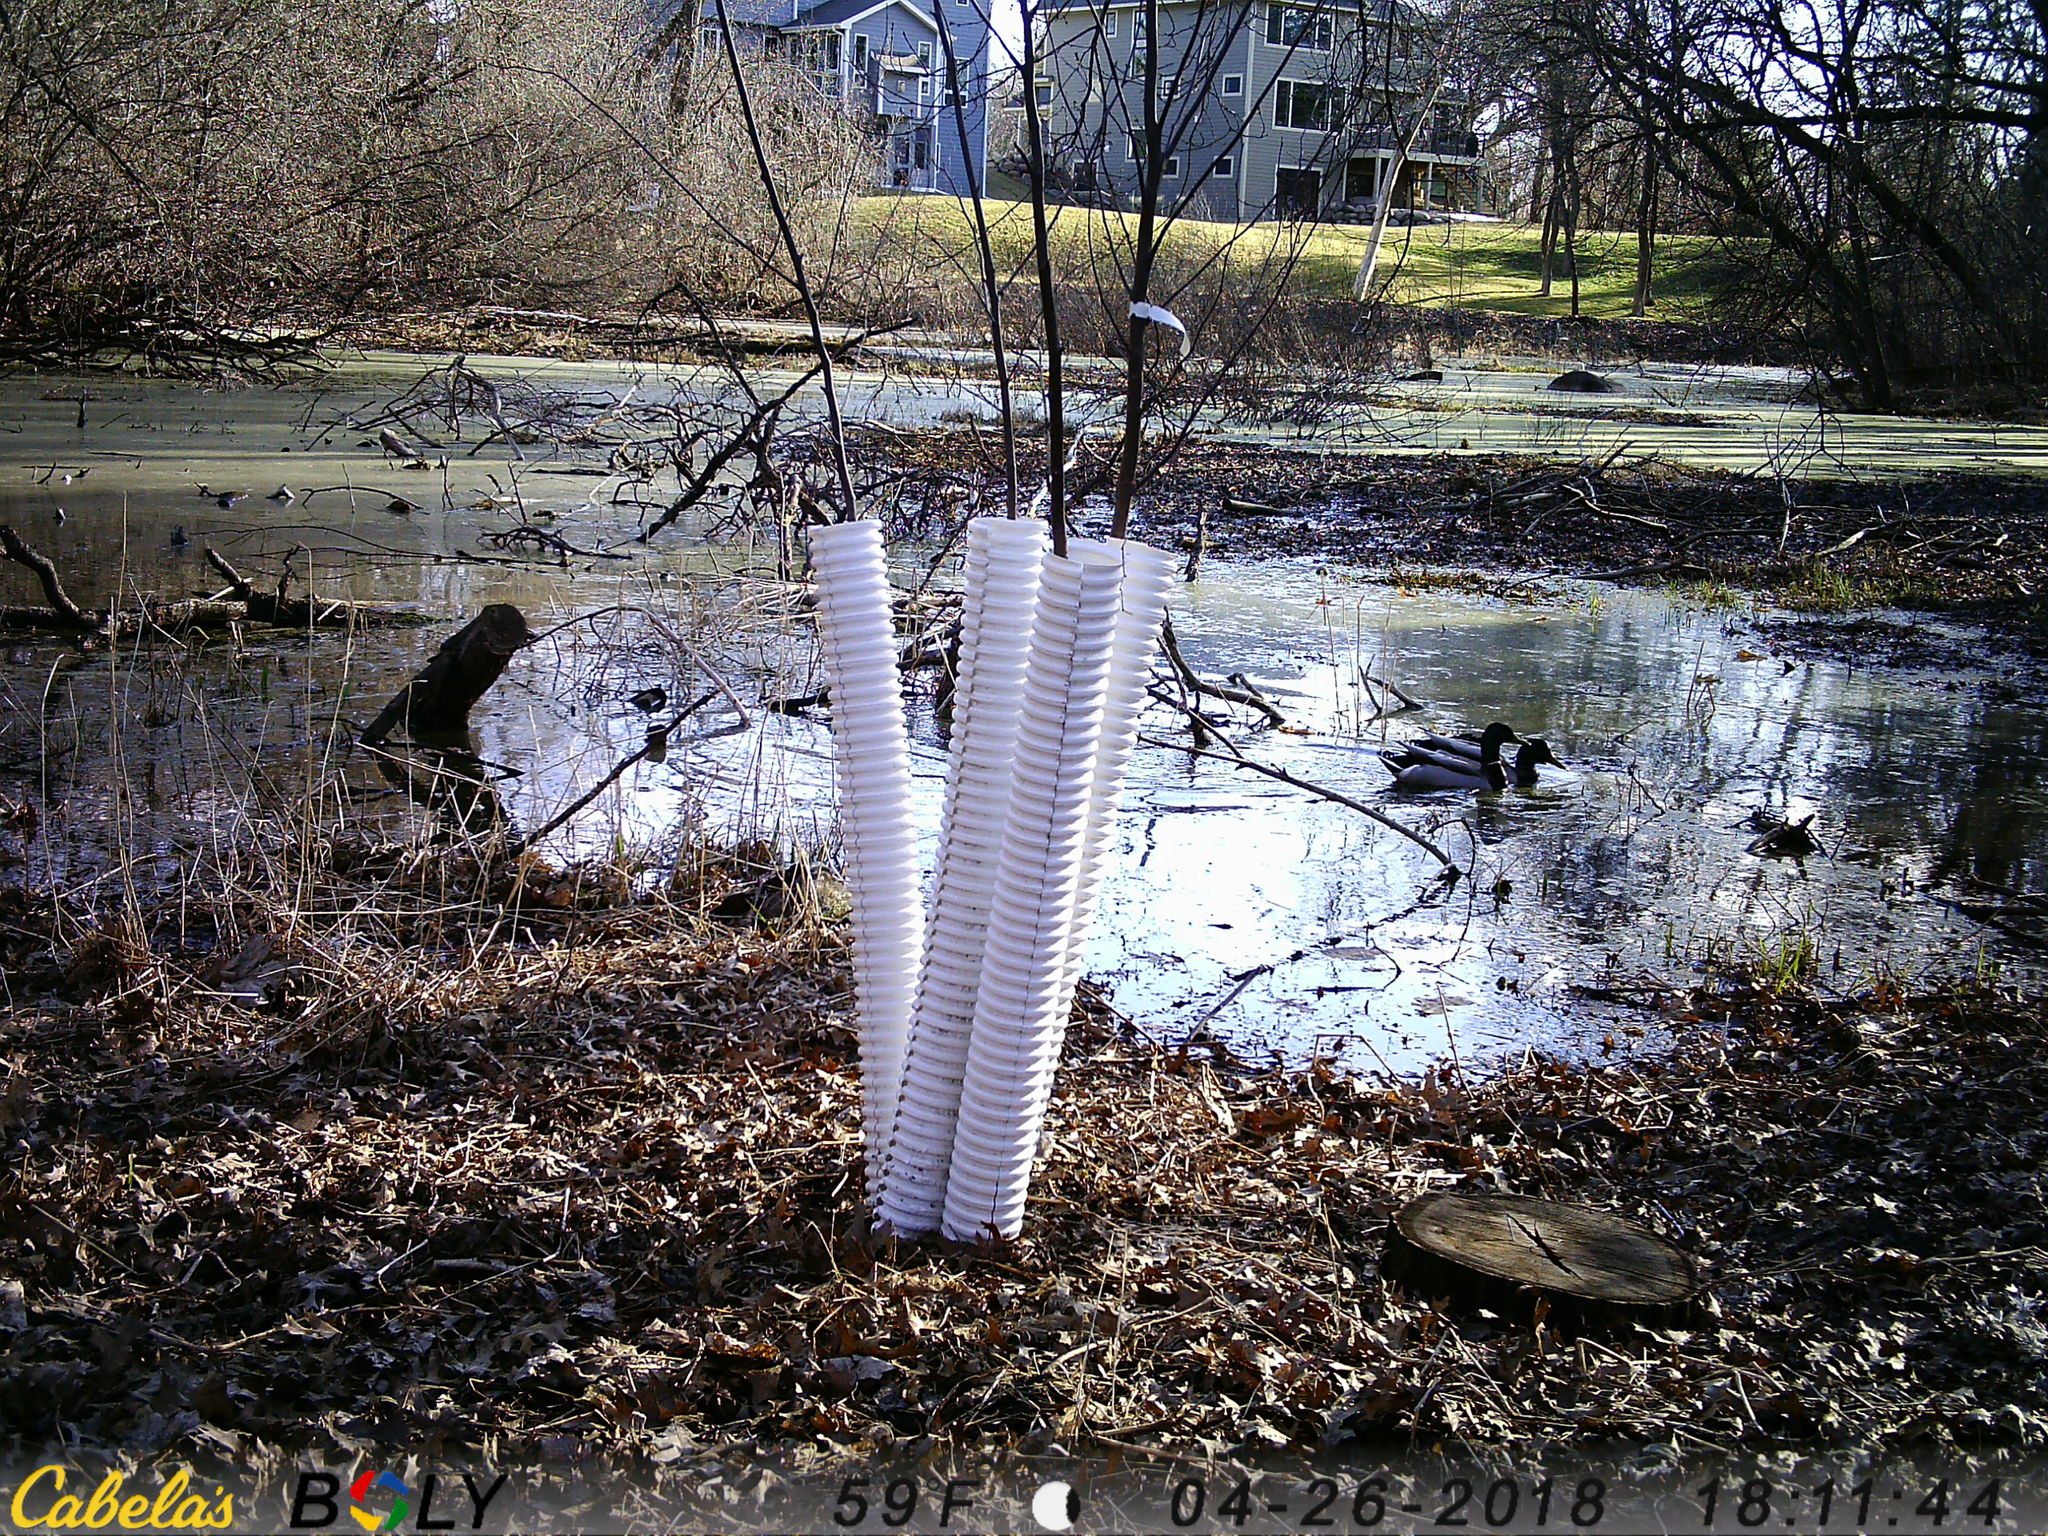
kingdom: Animalia
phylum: Chordata
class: Aves
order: Anseriformes
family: Anatidae
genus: Anas
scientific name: Anas platyrhynchos
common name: Mallard
